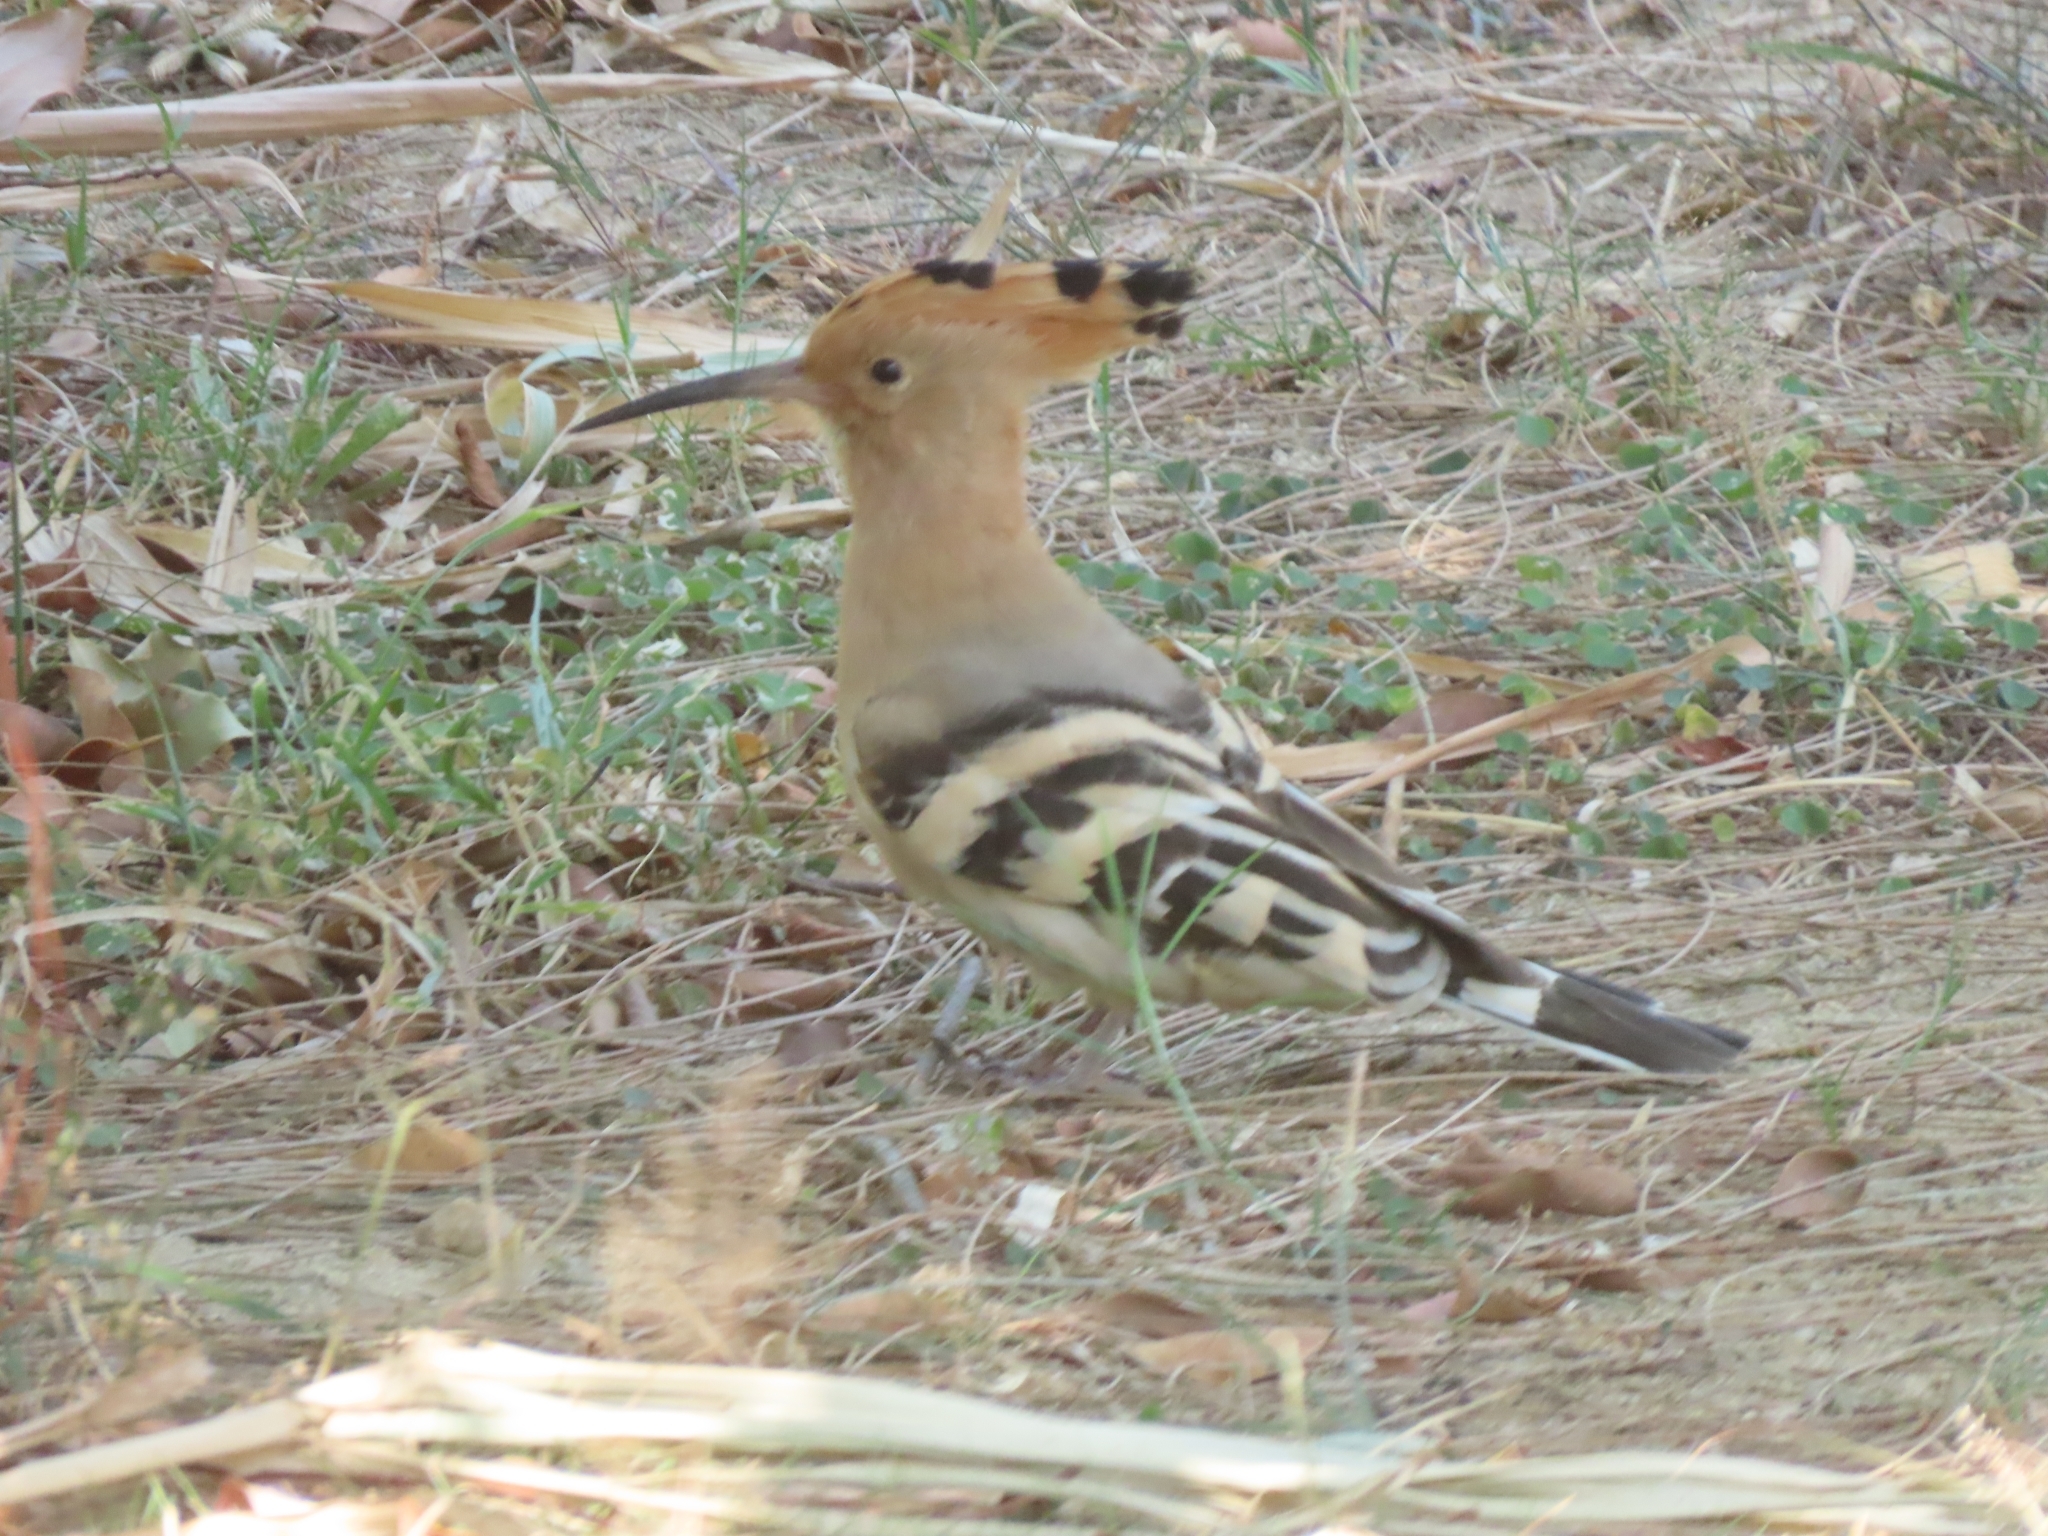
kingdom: Animalia
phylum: Chordata
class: Aves
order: Bucerotiformes
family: Upupidae
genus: Upupa
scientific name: Upupa epops
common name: Eurasian hoopoe
